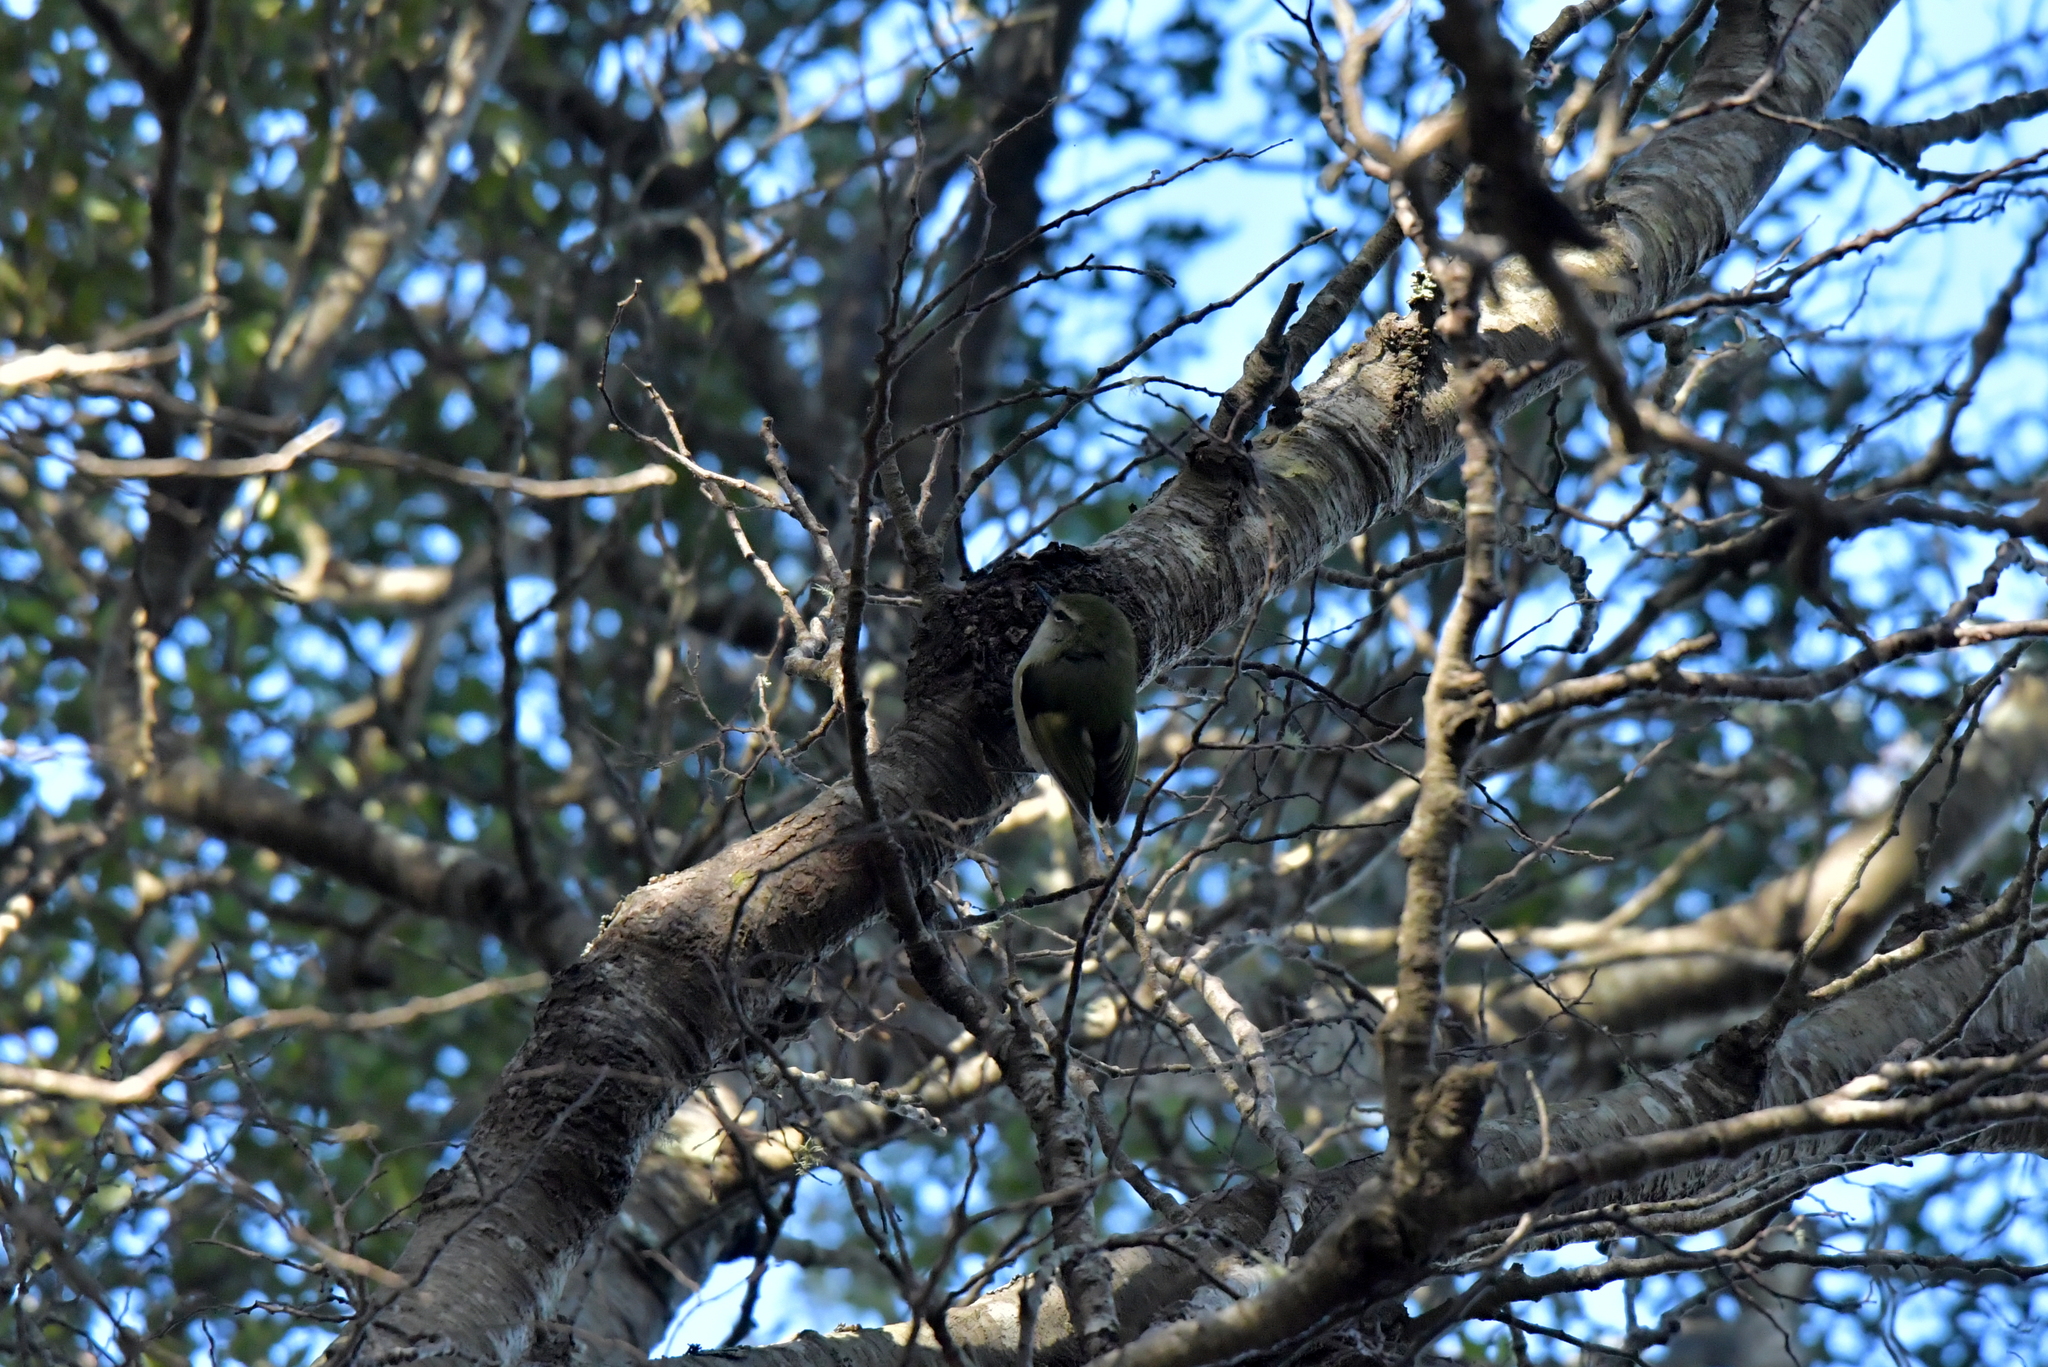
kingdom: Animalia
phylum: Chordata
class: Aves
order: Passeriformes
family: Acanthisittidae
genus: Acanthisitta
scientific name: Acanthisitta chloris
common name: Rifleman
